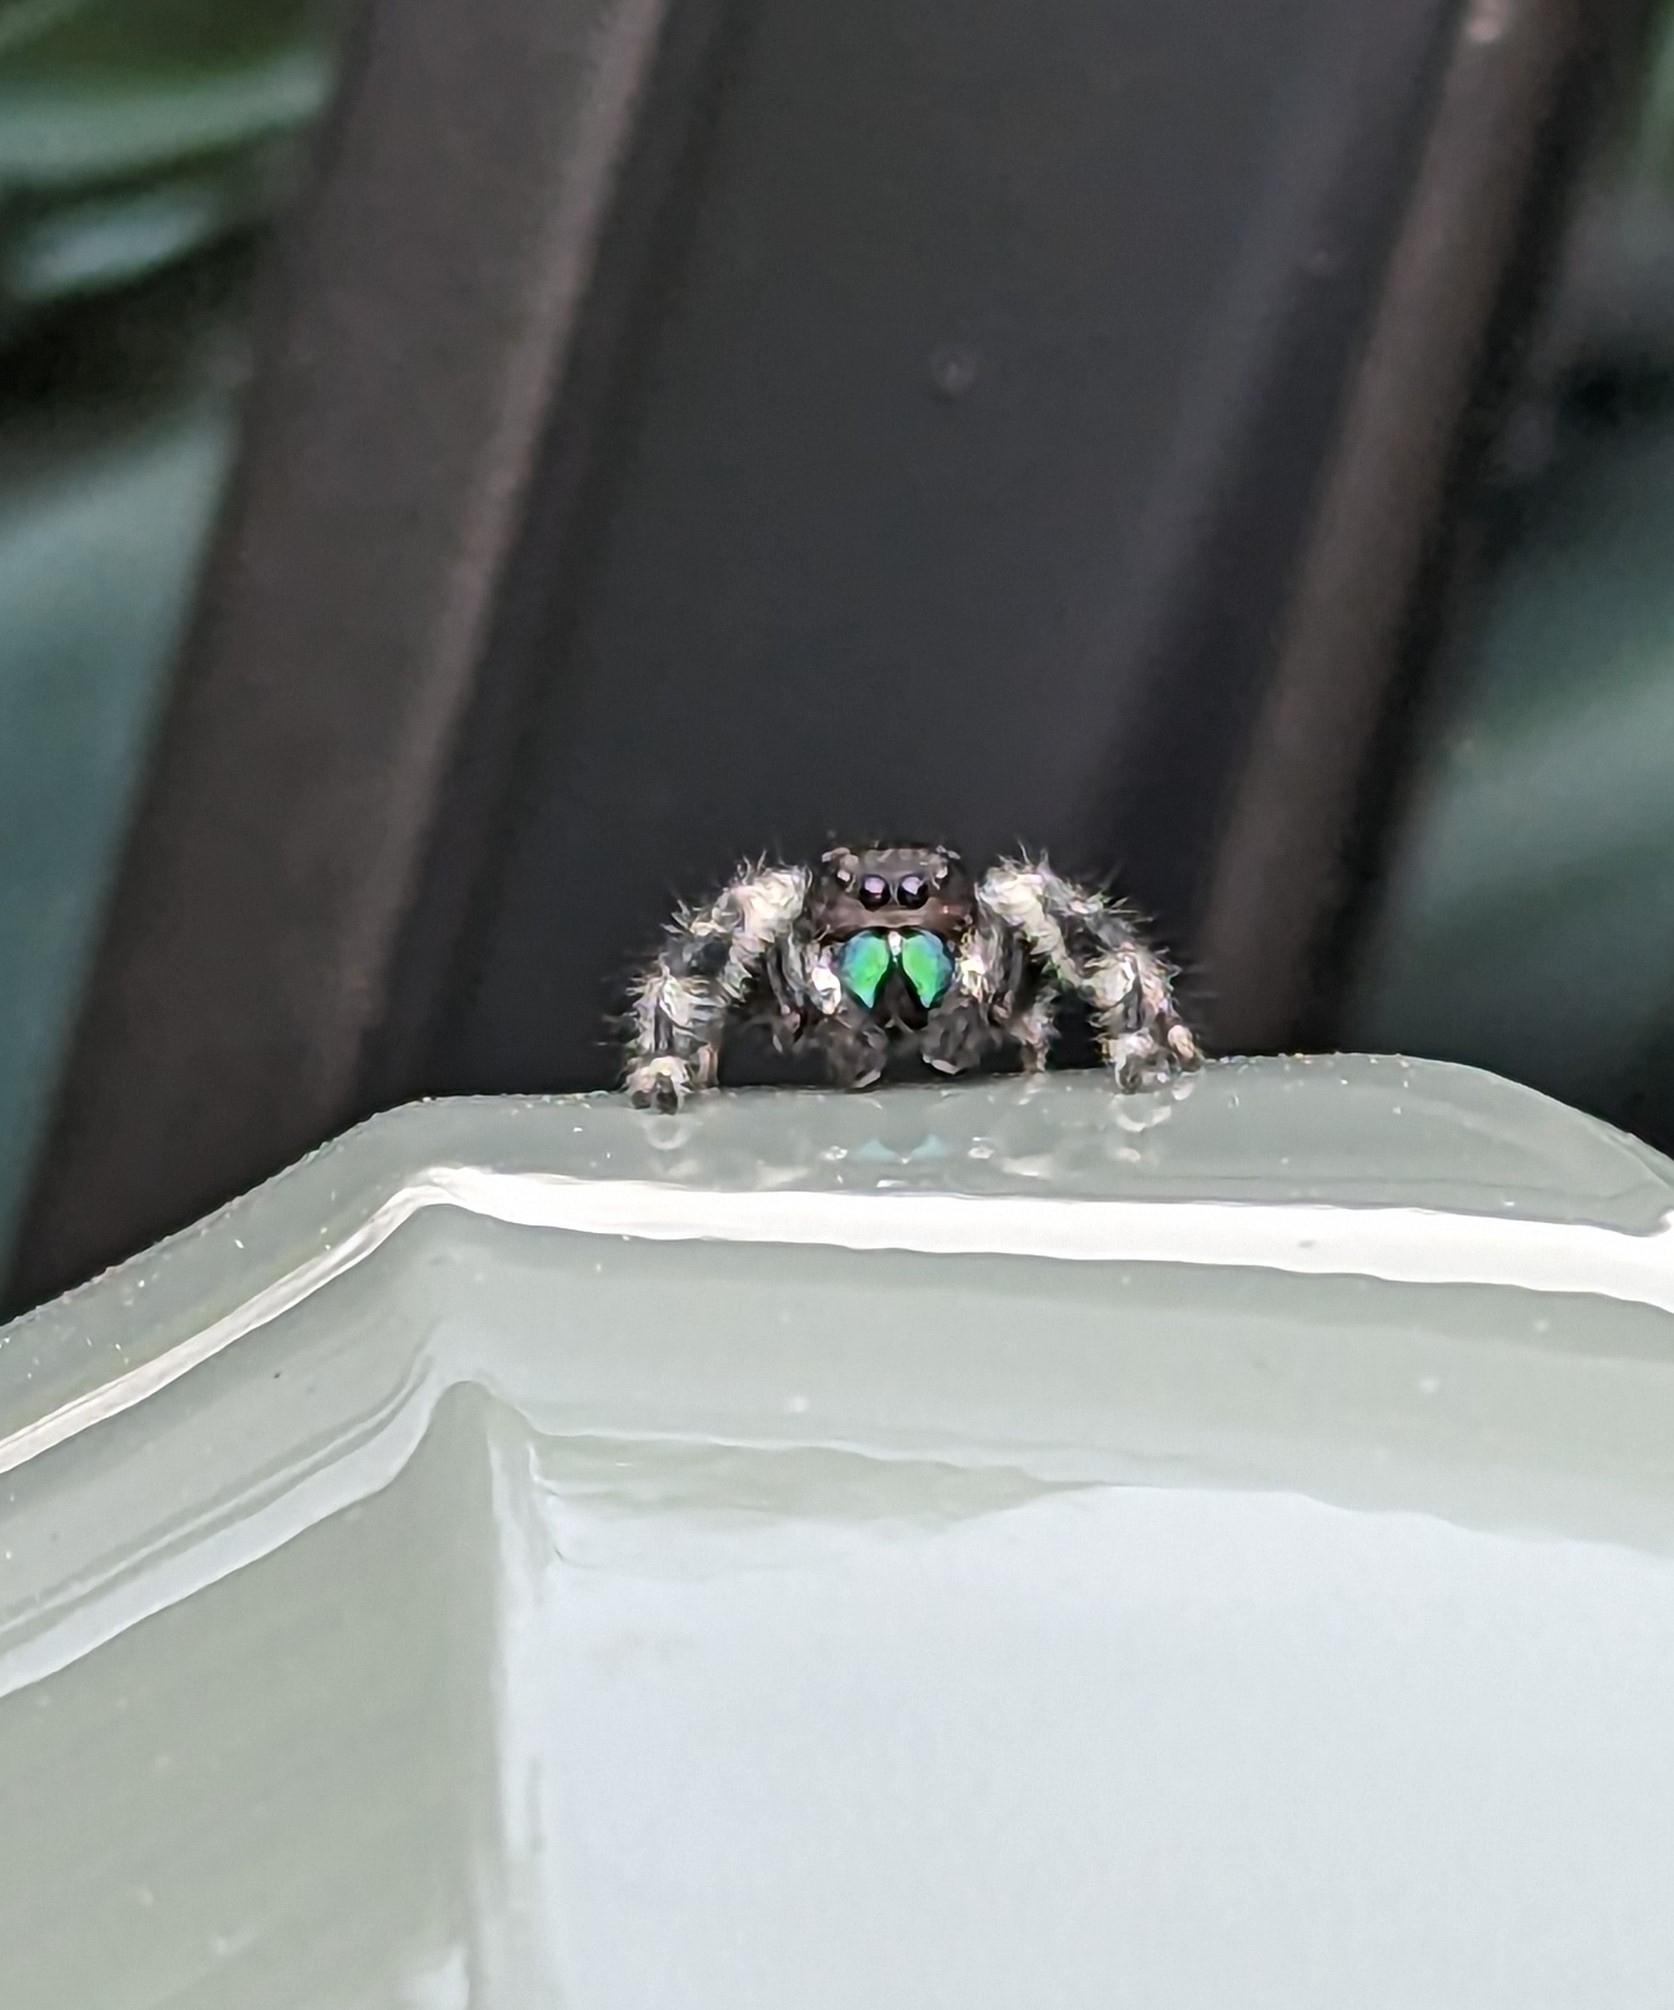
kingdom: Animalia
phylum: Arthropoda
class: Arachnida
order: Araneae
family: Salticidae
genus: Phidippus
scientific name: Phidippus audax
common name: Bold jumper
